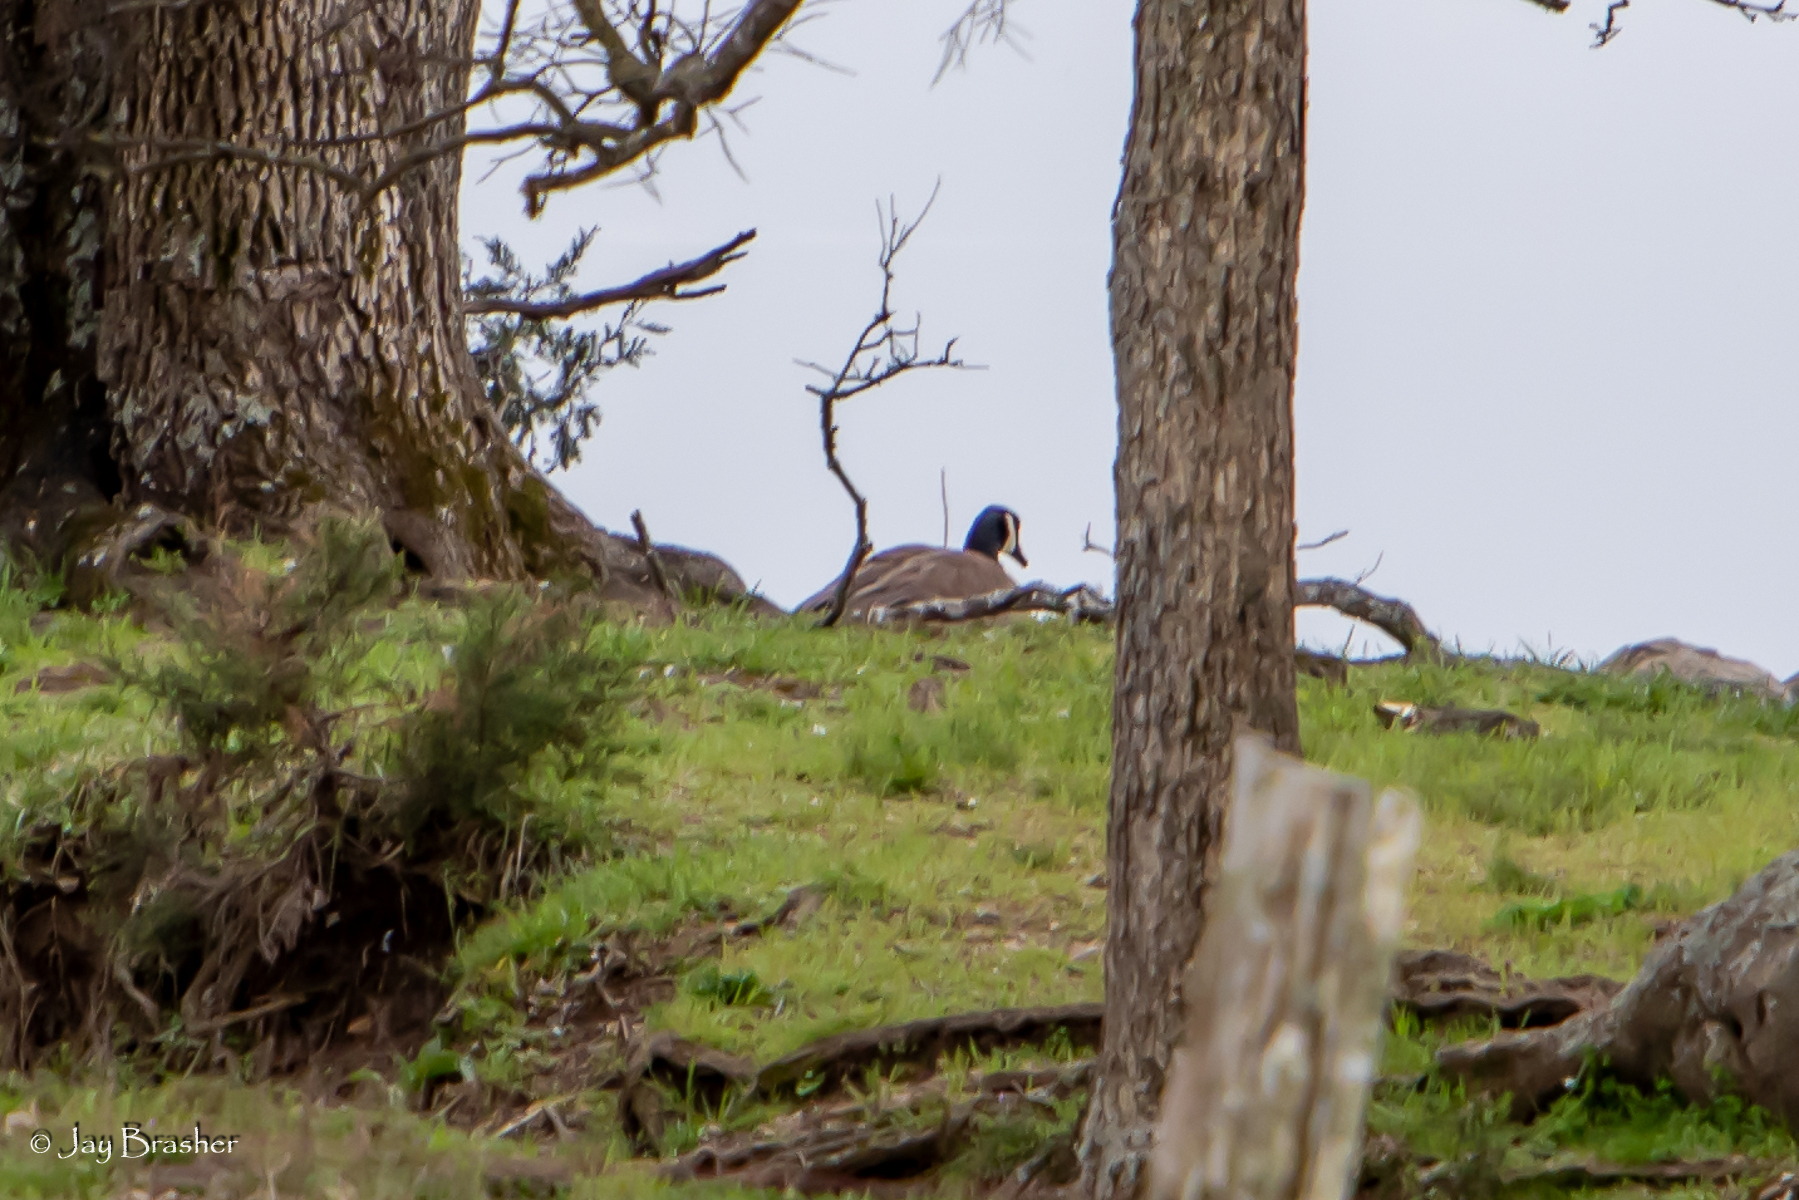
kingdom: Animalia
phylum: Chordata
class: Aves
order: Anseriformes
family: Anatidae
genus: Branta
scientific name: Branta canadensis
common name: Canada goose
